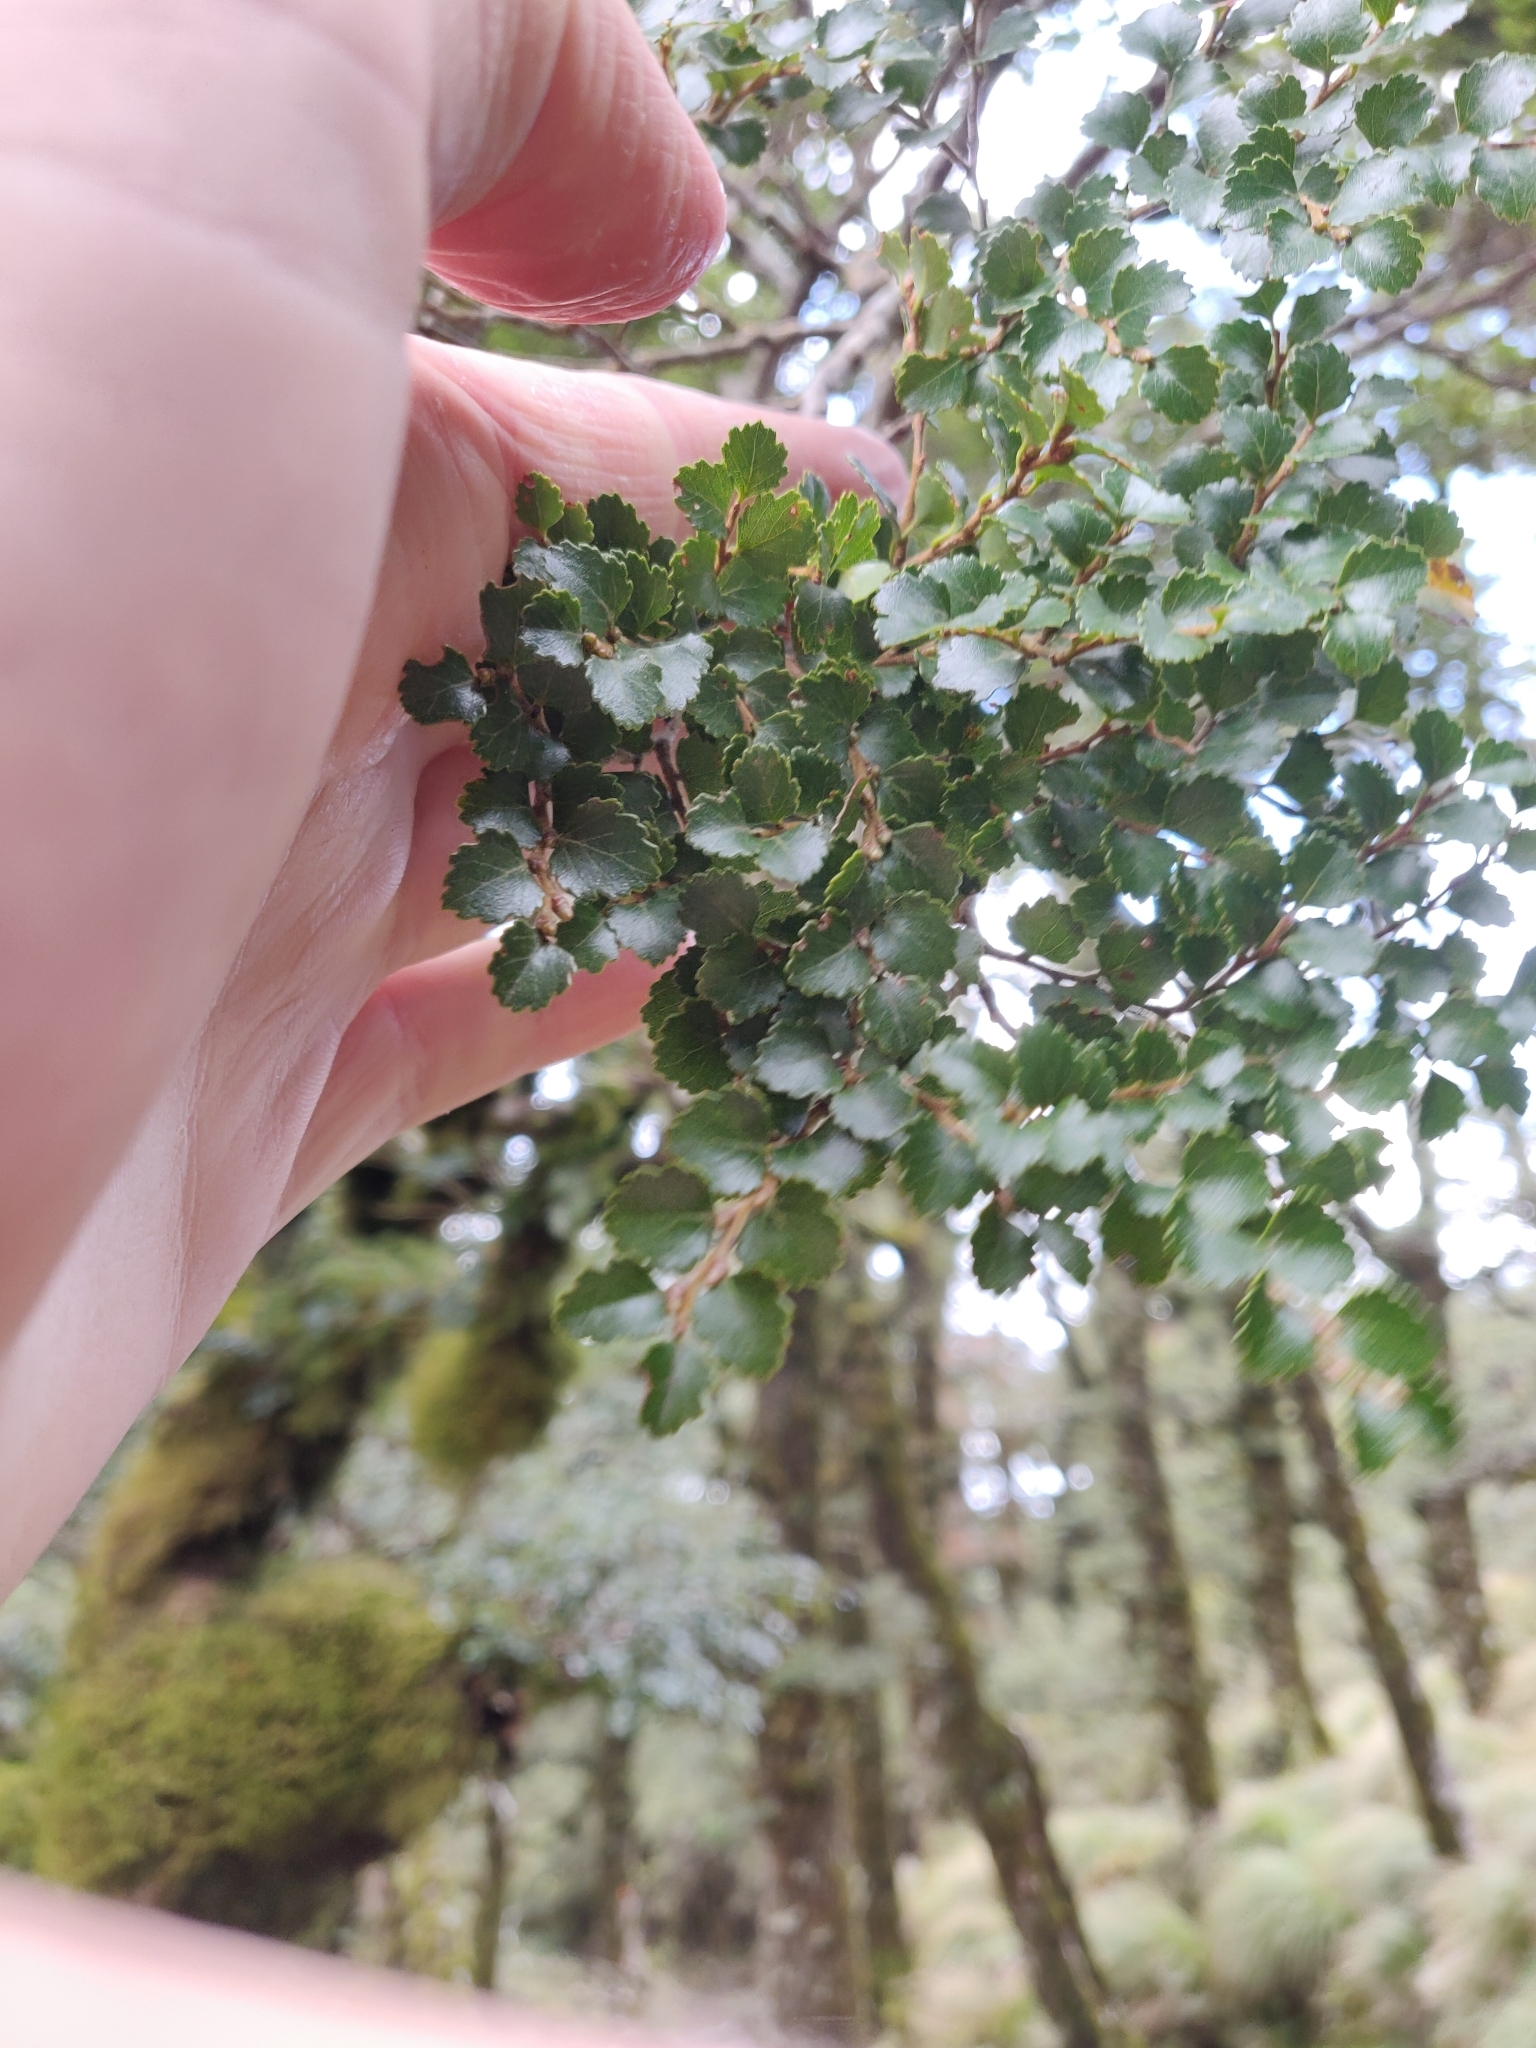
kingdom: Plantae
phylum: Tracheophyta
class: Magnoliopsida
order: Fagales
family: Nothofagaceae
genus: Nothofagus
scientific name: Nothofagus menziesii
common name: Silver beech
